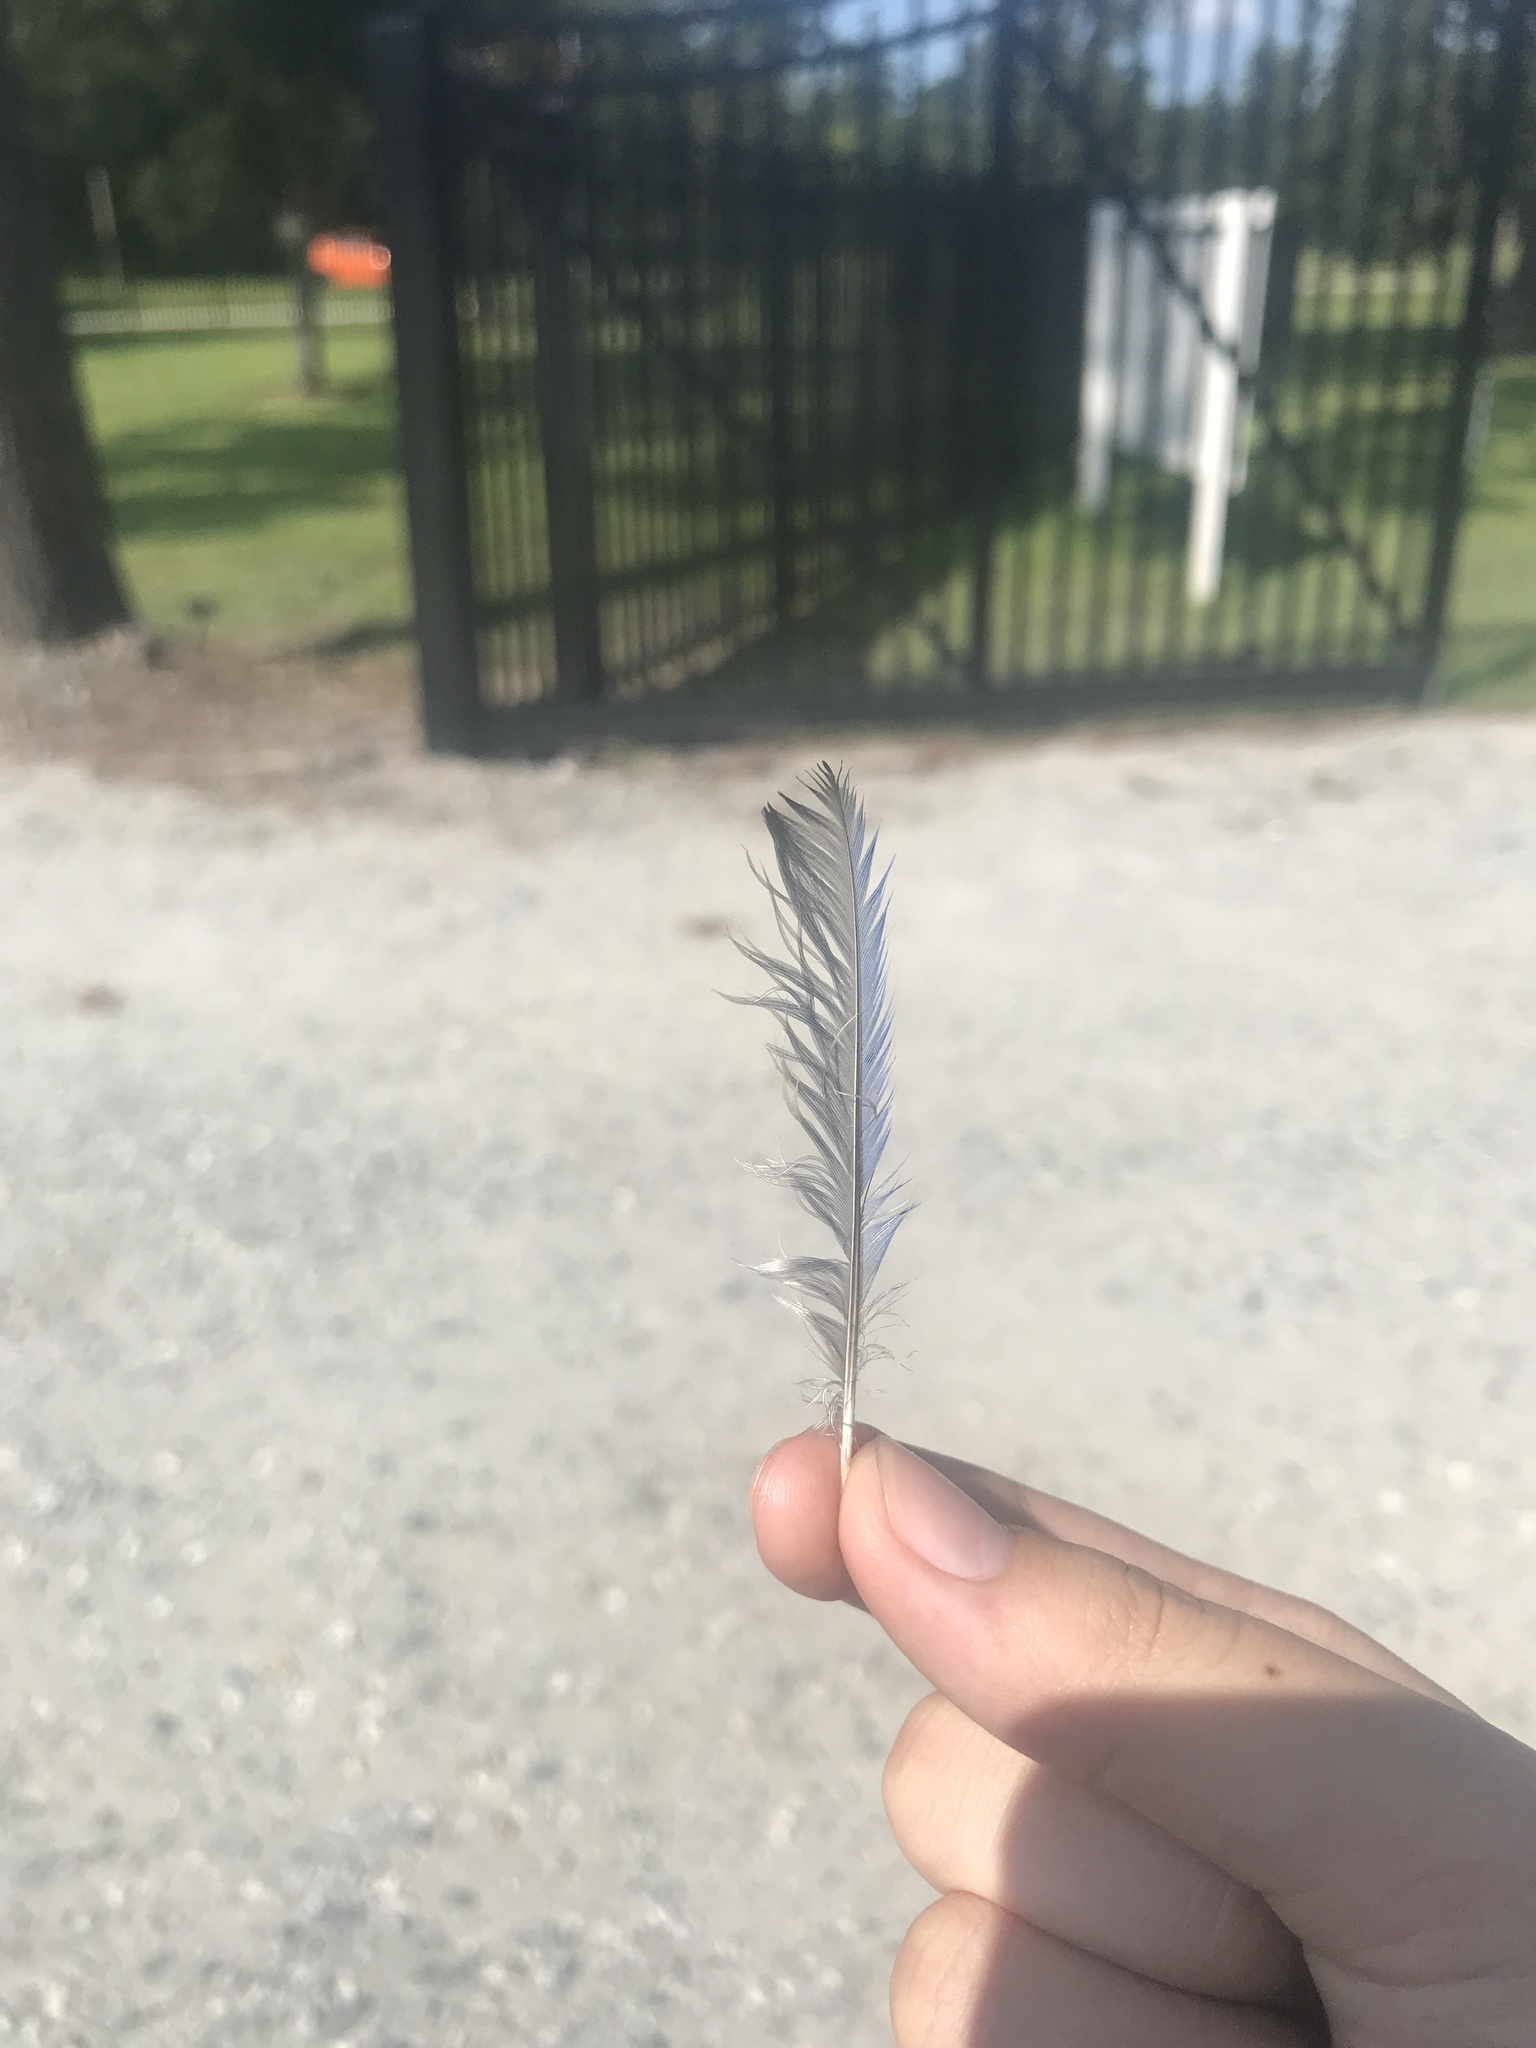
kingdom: Animalia
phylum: Chordata
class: Aves
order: Passeriformes
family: Turdidae
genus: Sialia
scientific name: Sialia sialis
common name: Eastern bluebird
